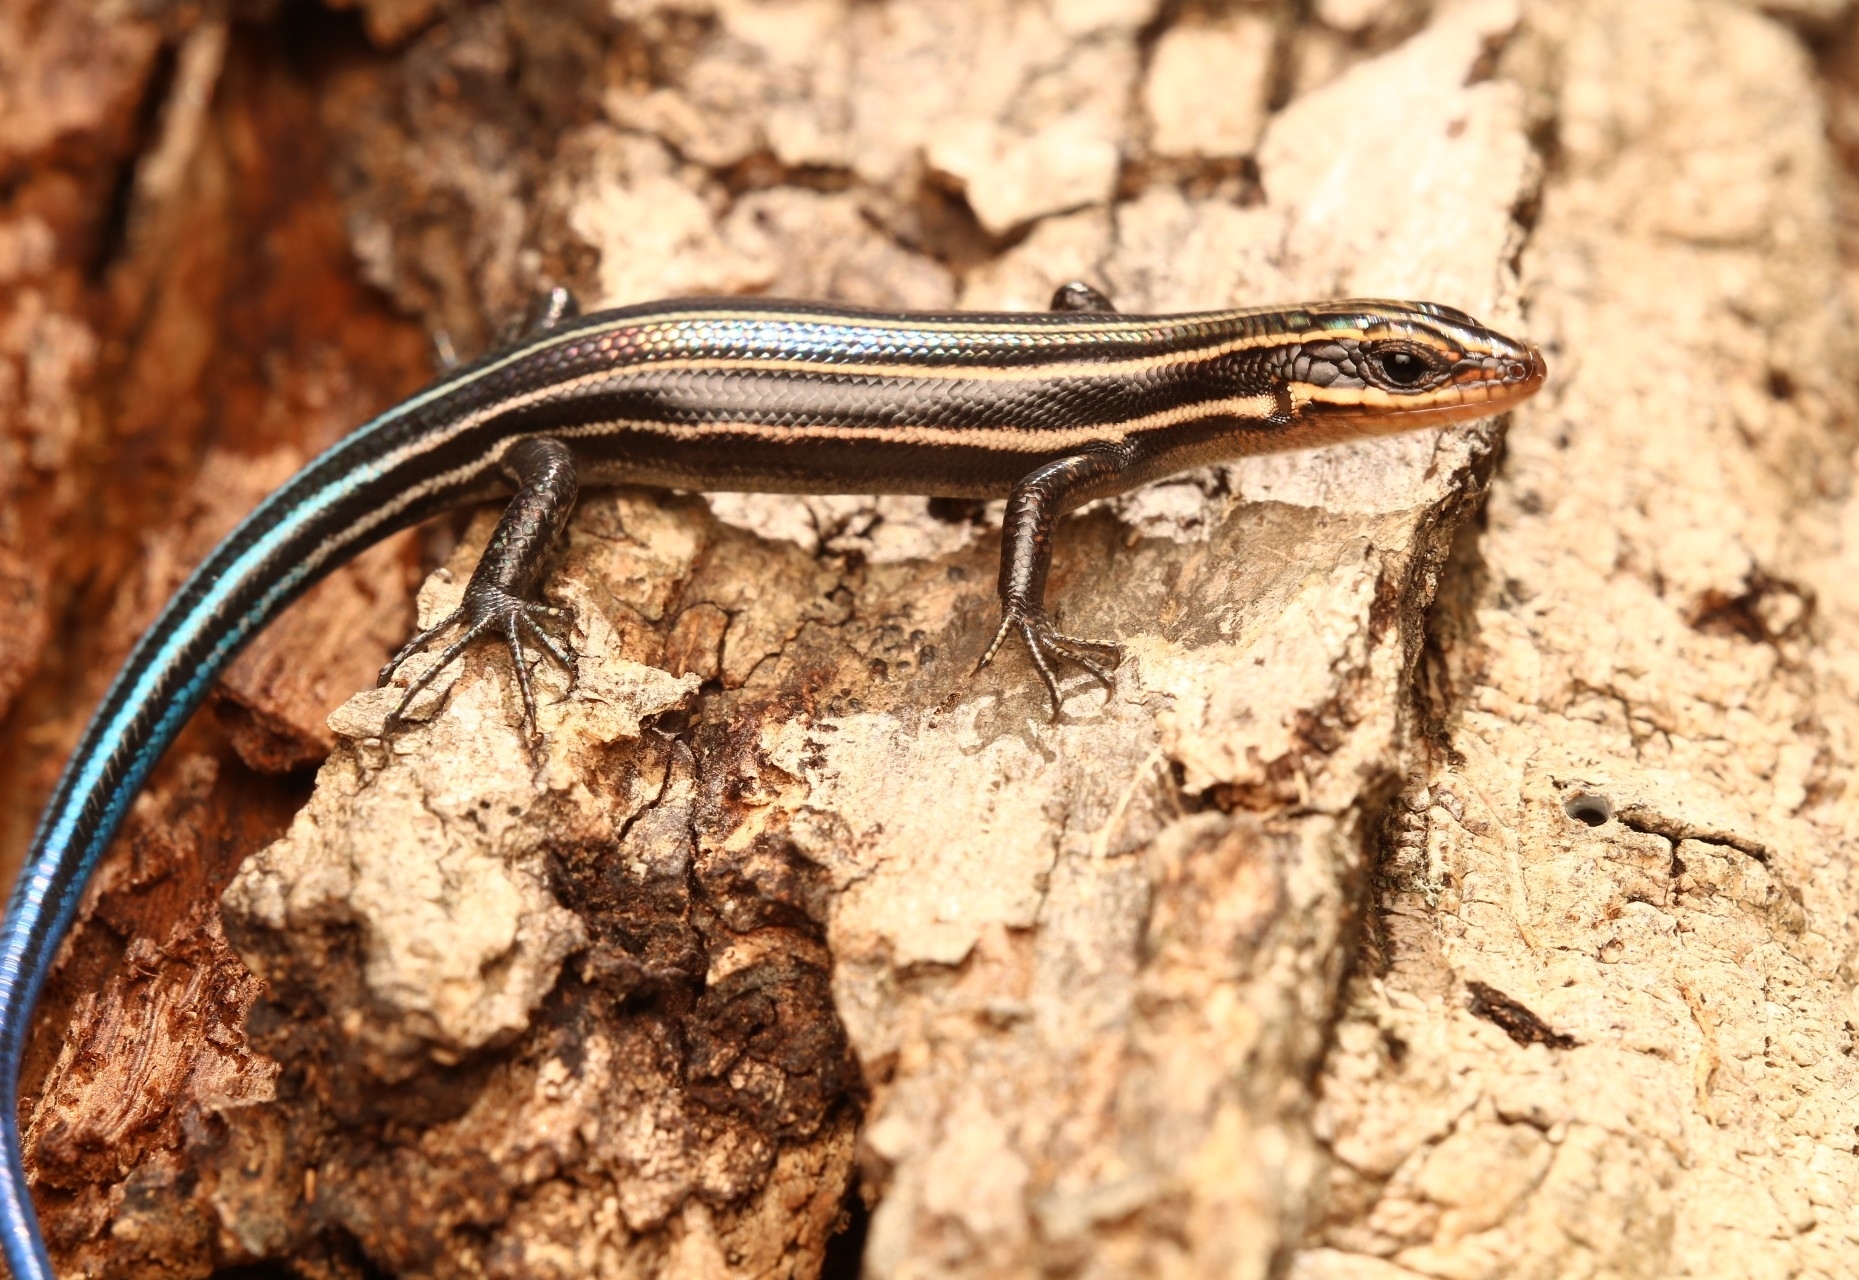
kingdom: Animalia
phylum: Chordata
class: Squamata
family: Scincidae
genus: Plestiodon
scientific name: Plestiodon fasciatus
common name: Five-lined skink
